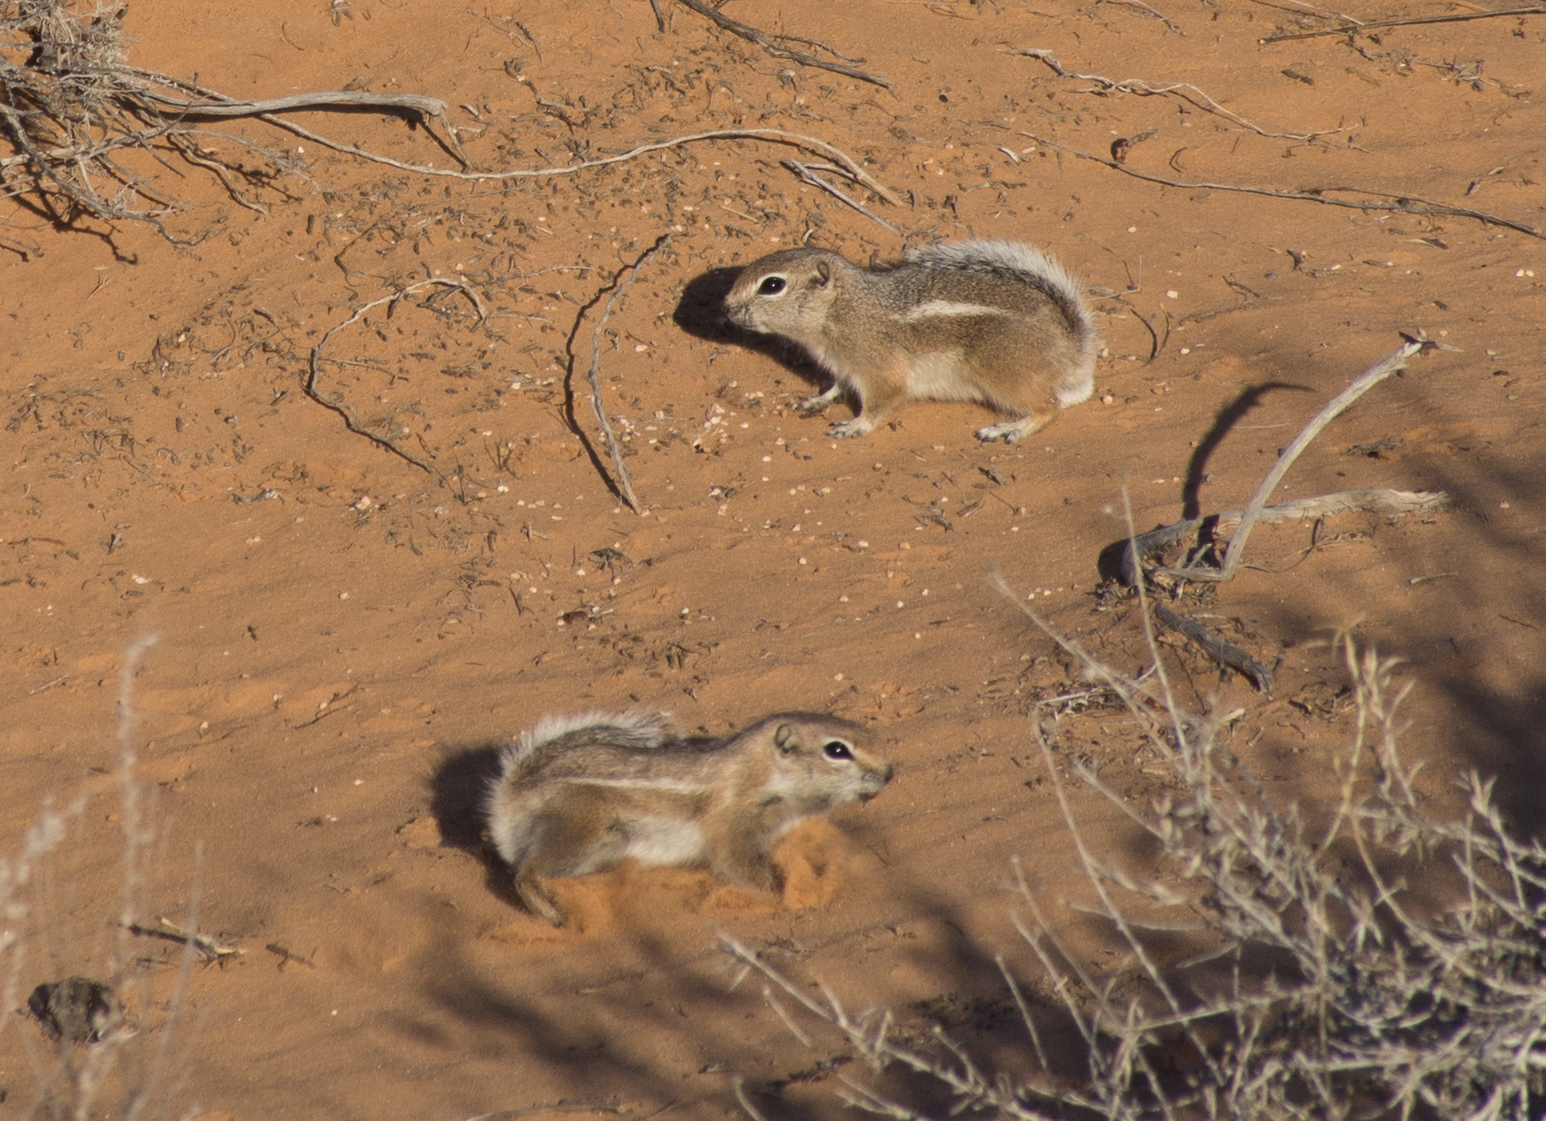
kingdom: Animalia
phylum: Chordata
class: Mammalia
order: Rodentia
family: Sciuridae
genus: Ammospermophilus
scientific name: Ammospermophilus leucurus
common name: White-tailed antelope squirrel
